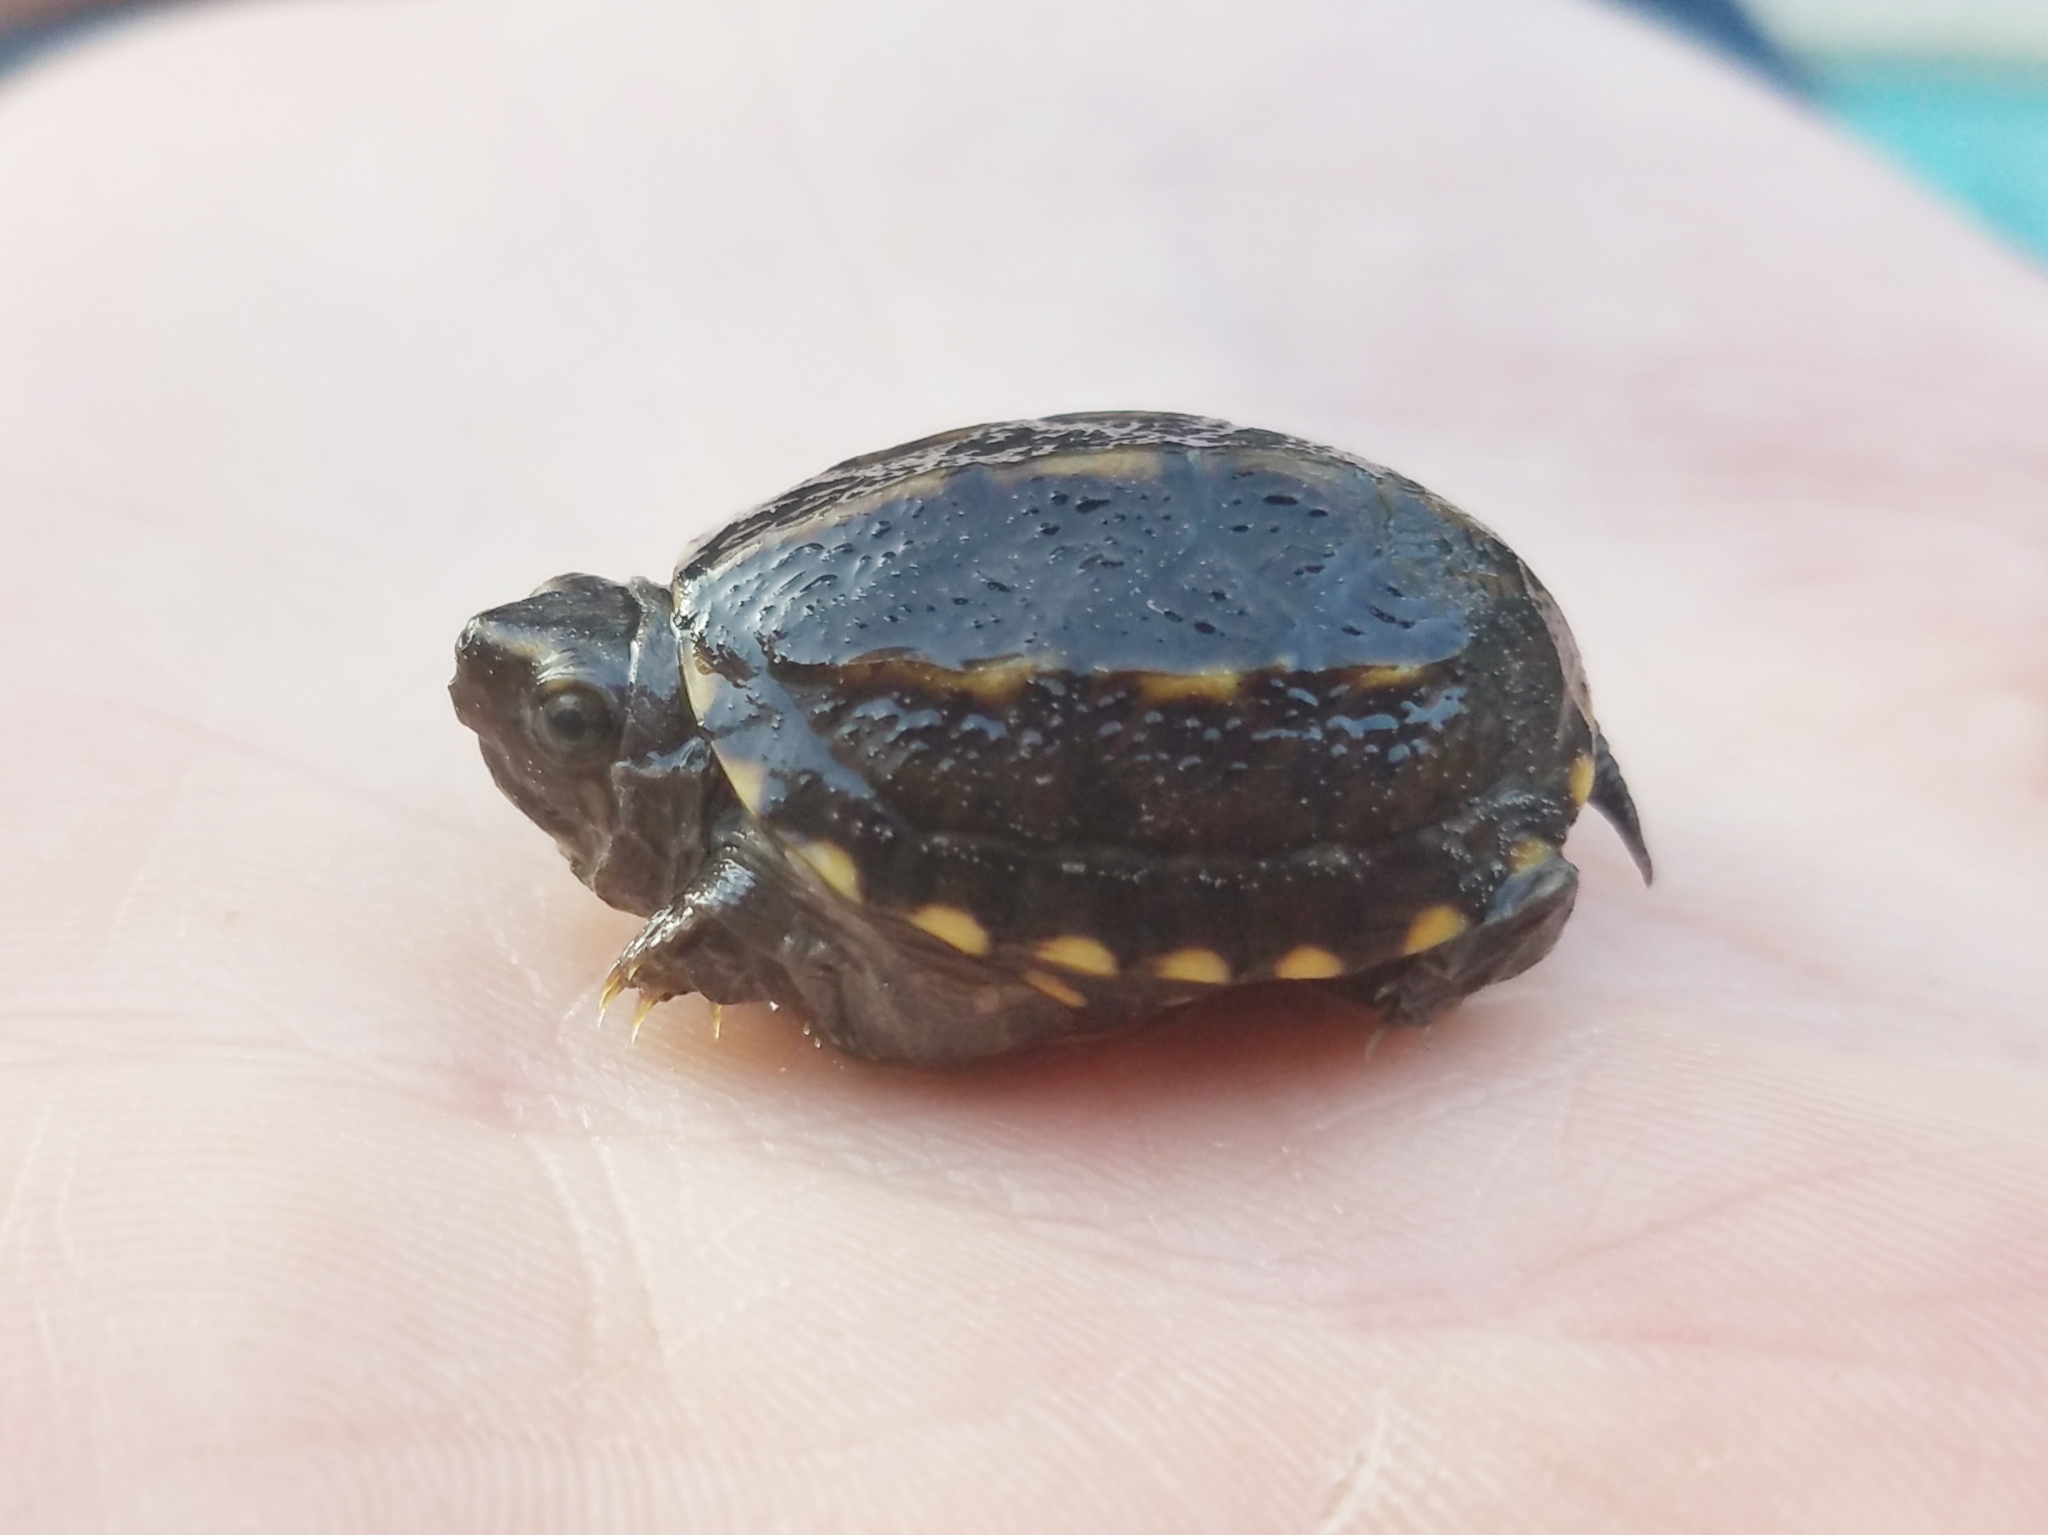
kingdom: Animalia
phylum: Chordata
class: Testudines
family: Kinosternidae
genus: Kinosternon
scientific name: Kinosternon baurii
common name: Striped mud turtle
